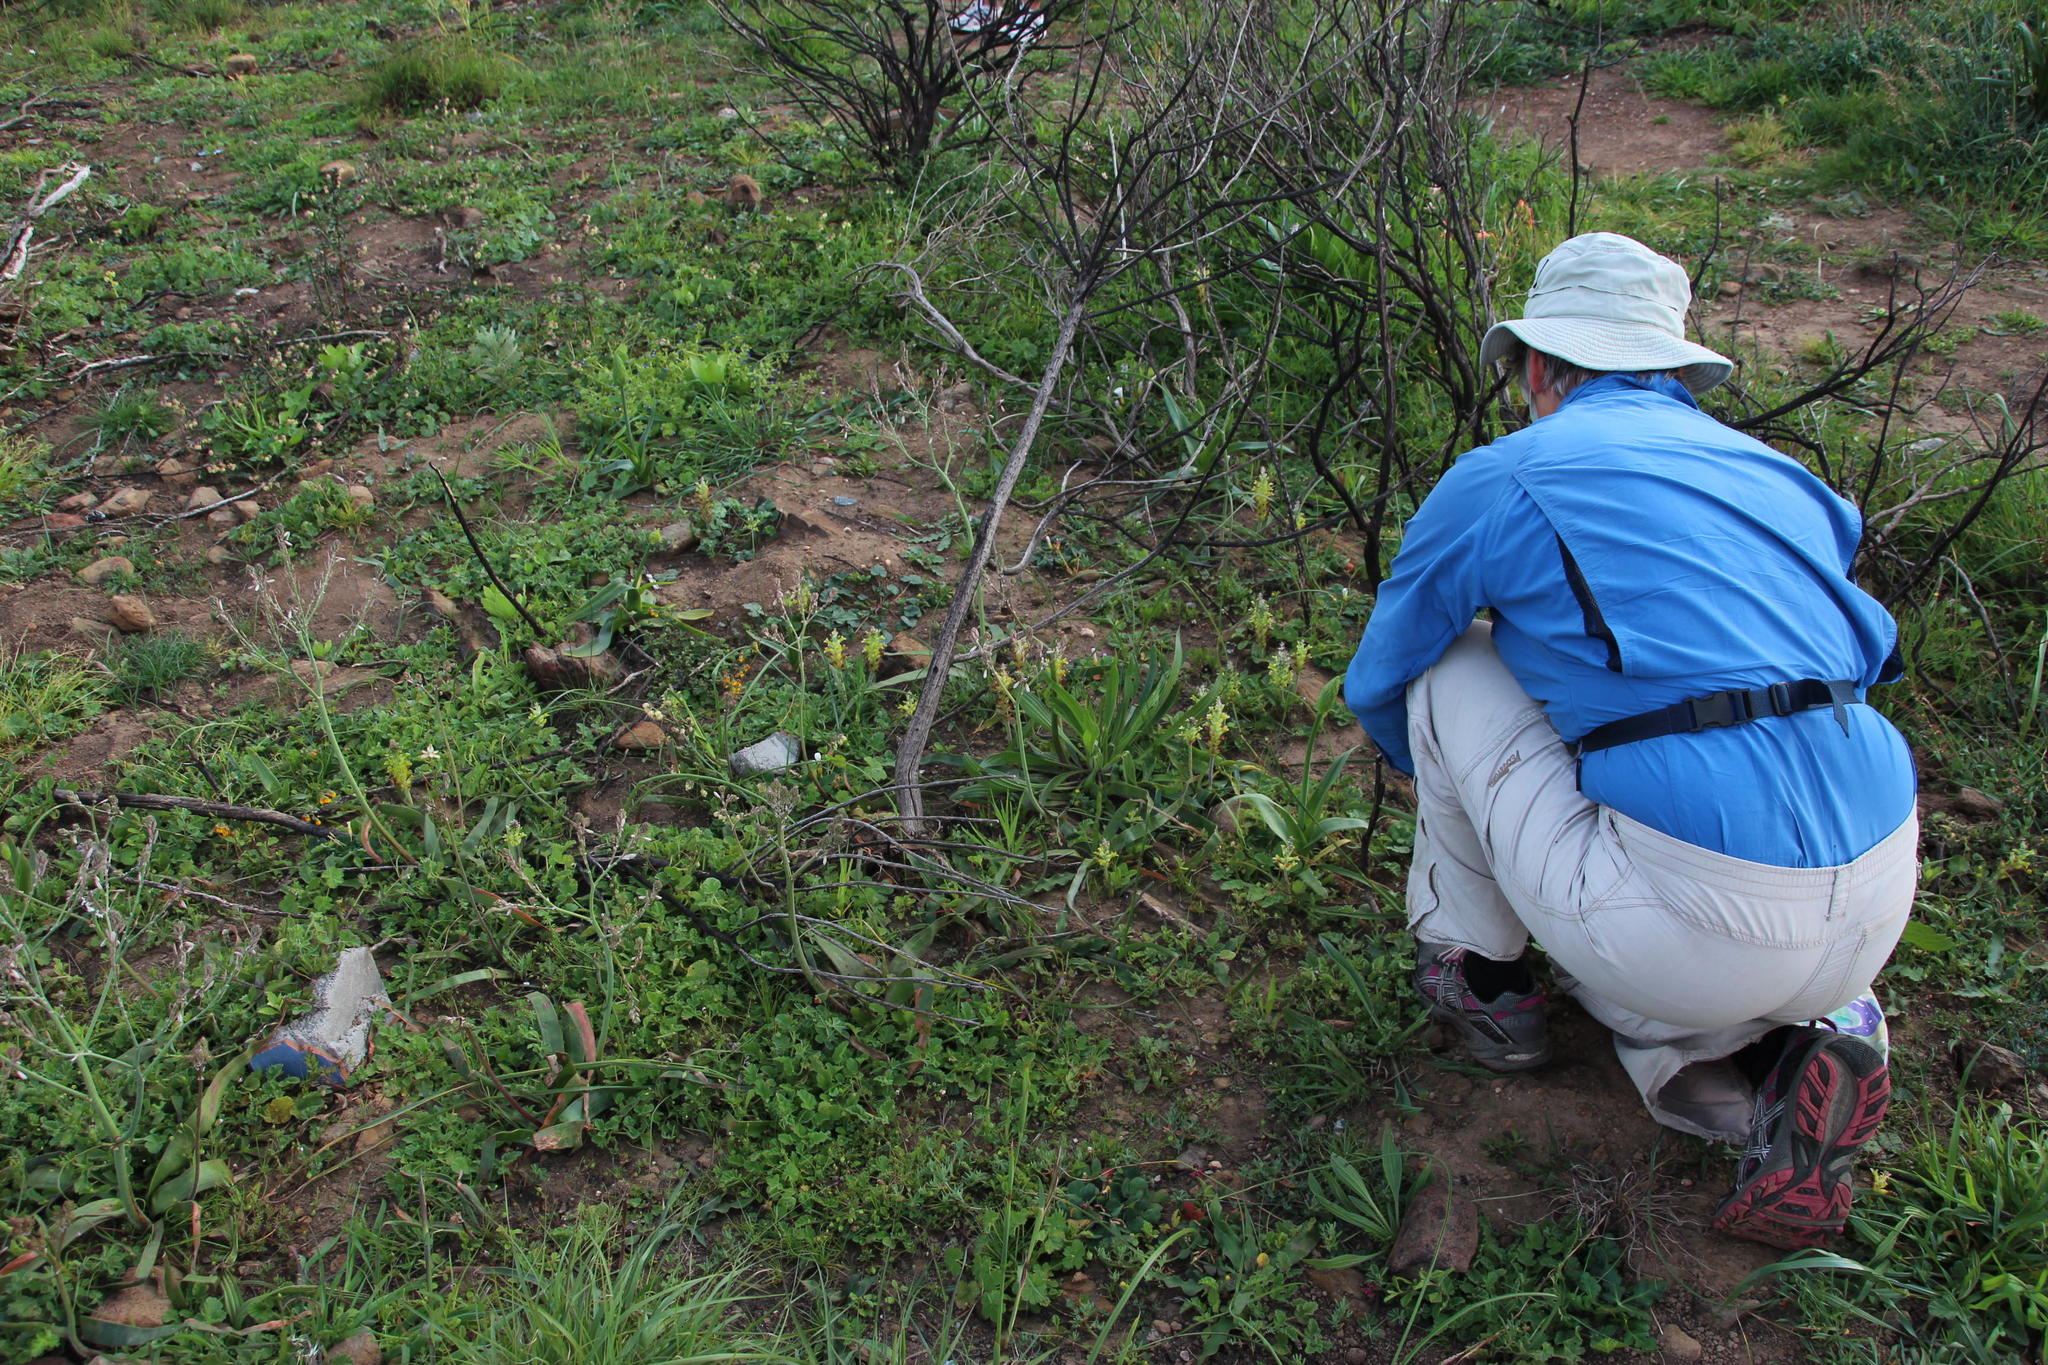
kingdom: Plantae
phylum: Tracheophyta
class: Liliopsida
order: Asparagales
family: Asparagaceae
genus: Lachenalia
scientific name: Lachenalia orchioides
